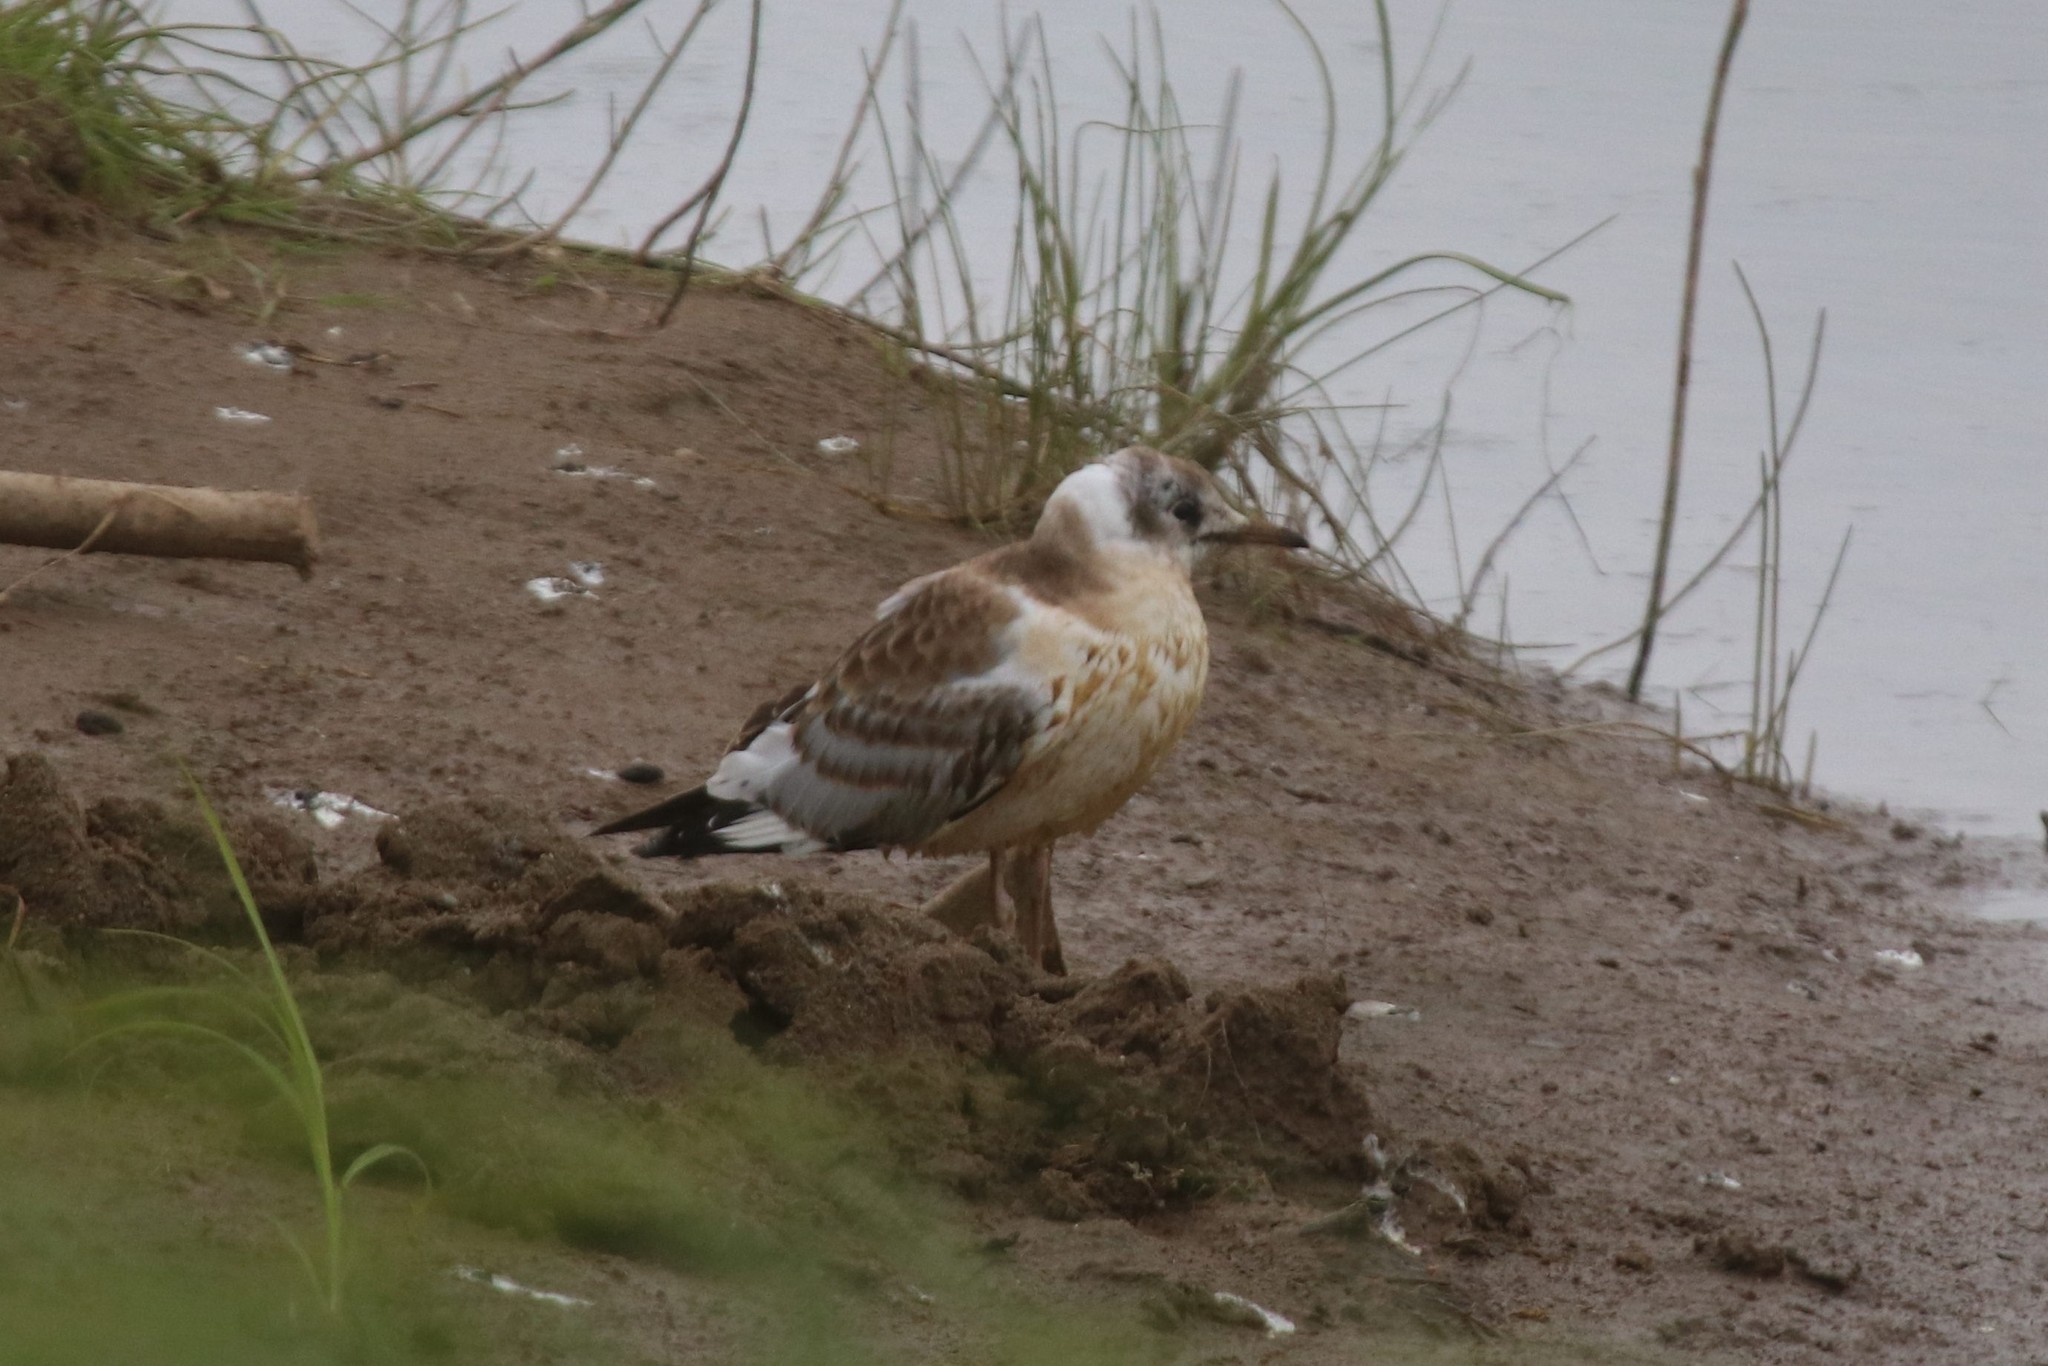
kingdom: Animalia
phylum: Chordata
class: Aves
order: Charadriiformes
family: Laridae
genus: Chroicocephalus
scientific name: Chroicocephalus ridibundus
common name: Black-headed gull
